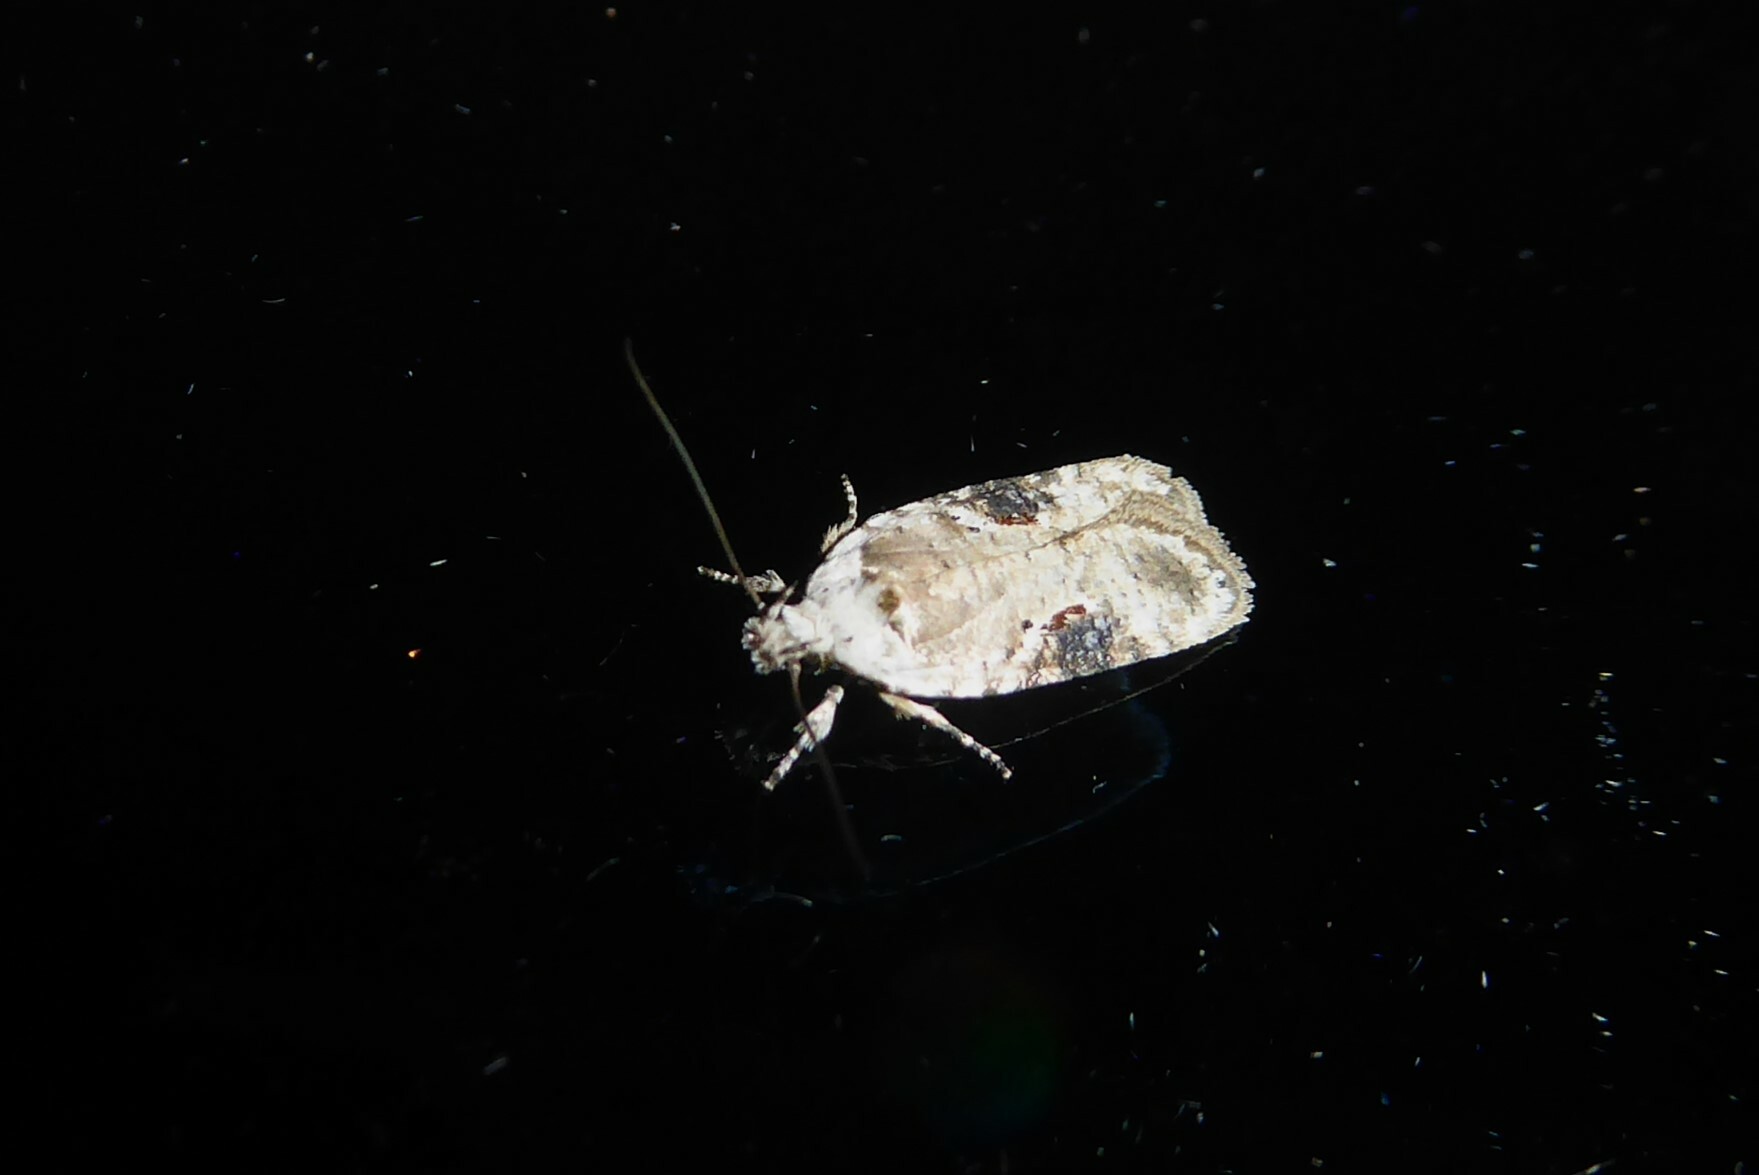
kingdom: Animalia
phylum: Arthropoda
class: Insecta
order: Lepidoptera
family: Depressariidae
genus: Agonopterix
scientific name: Agonopterix alstroemeriana
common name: Moth
